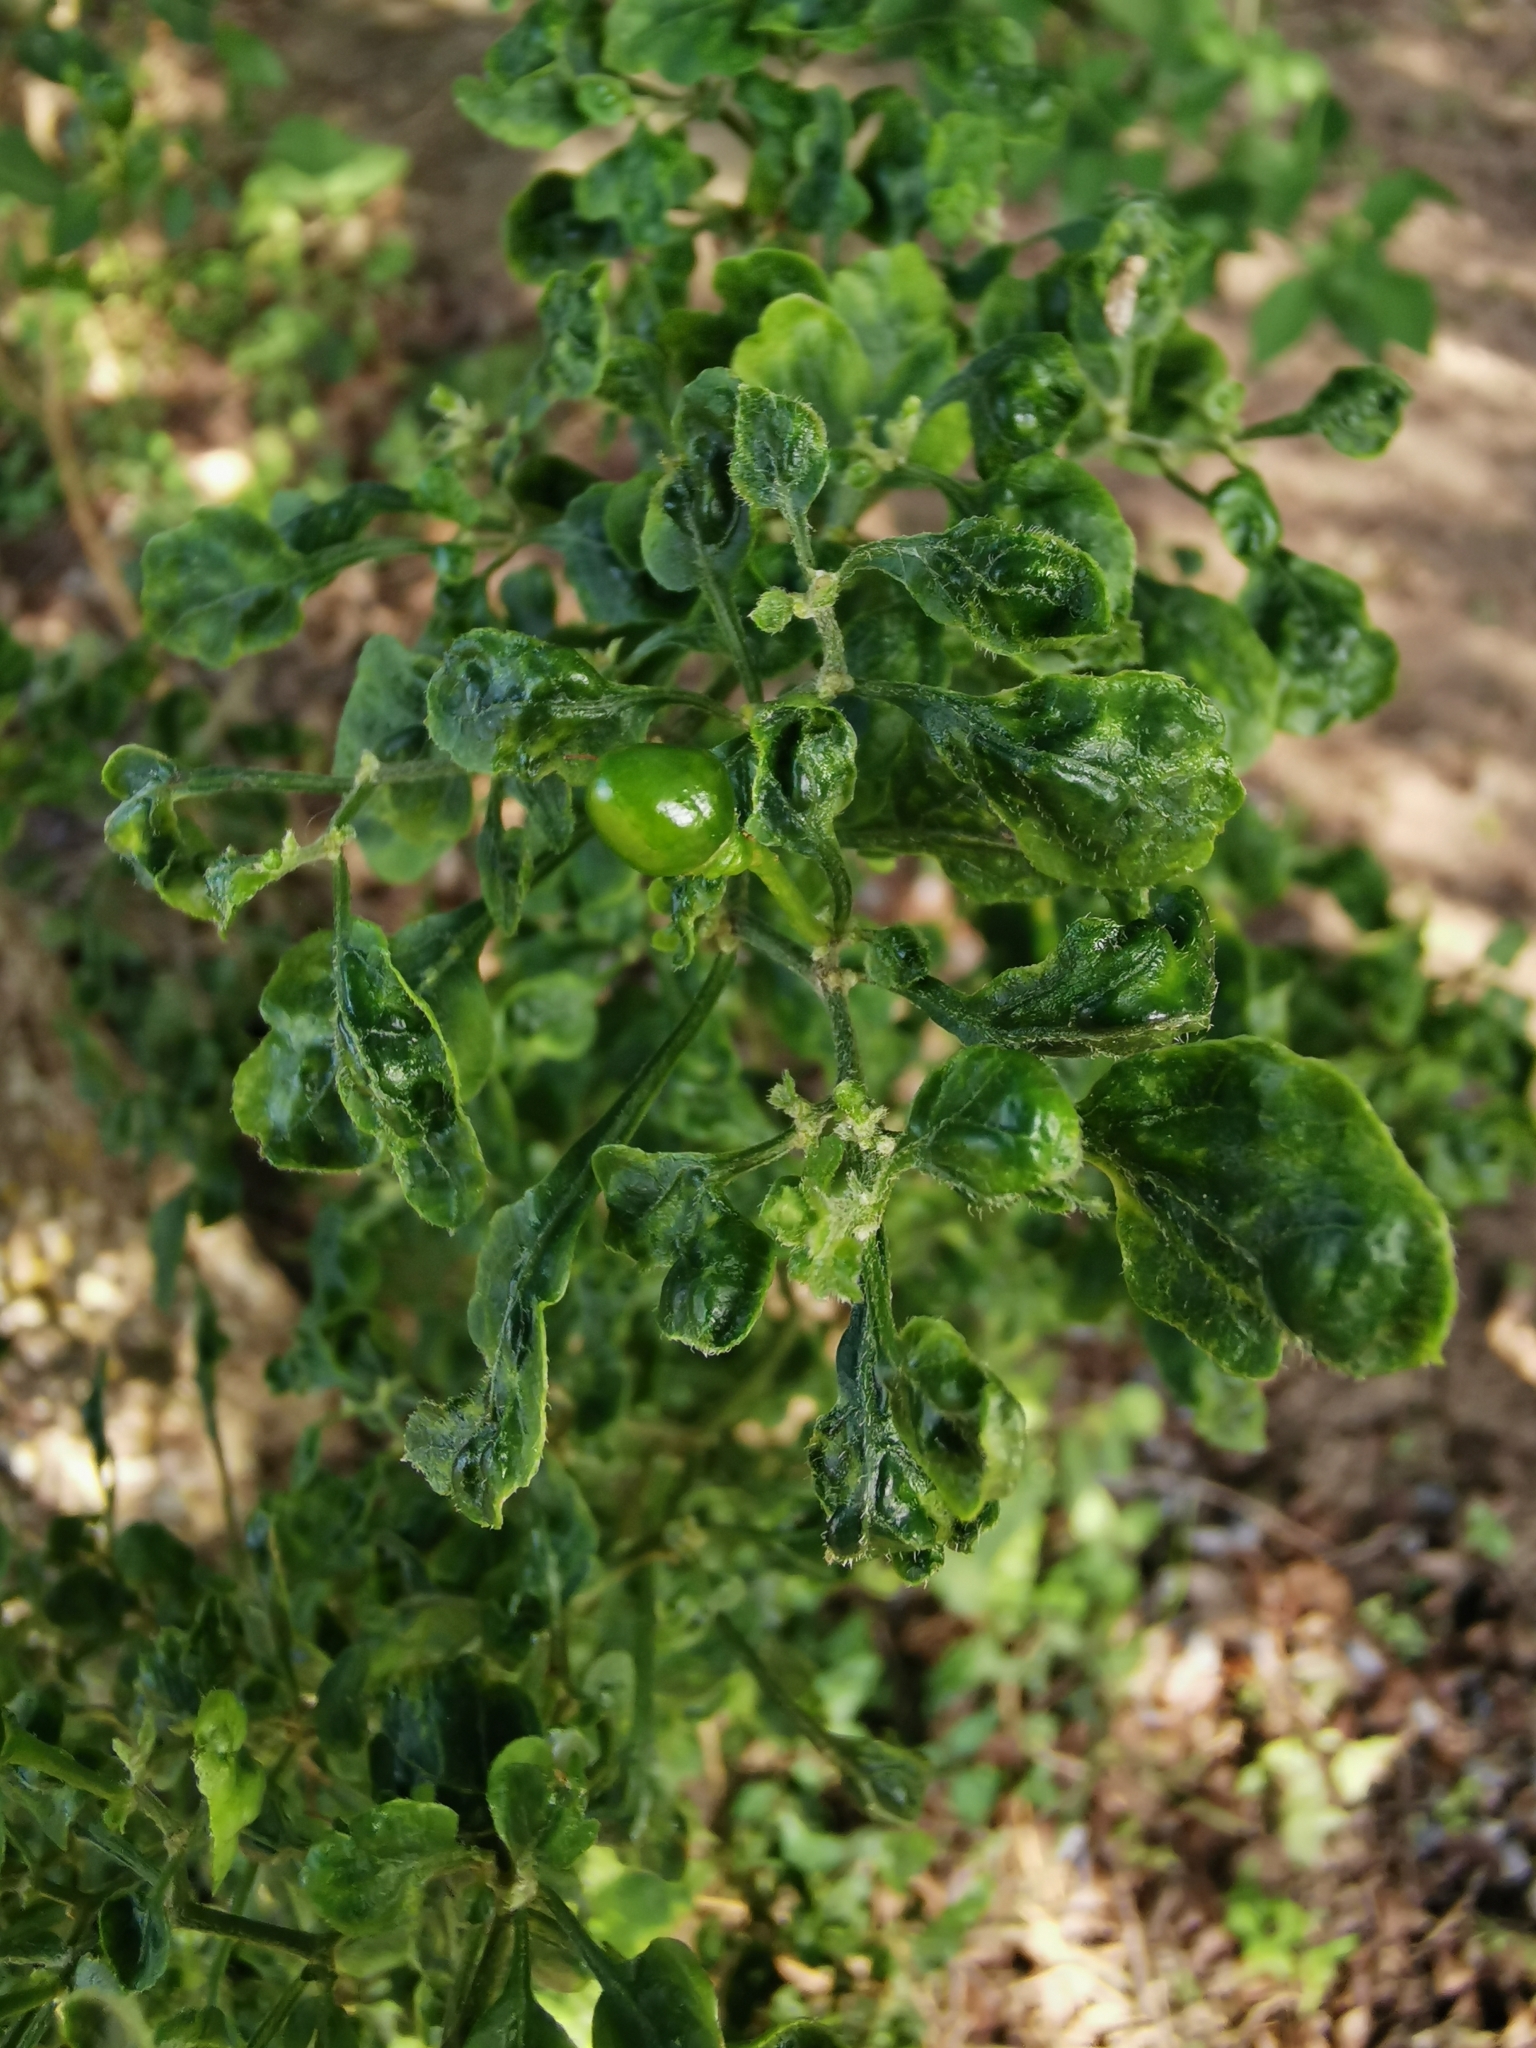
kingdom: Plantae
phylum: Tracheophyta
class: Magnoliopsida
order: Solanales
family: Solanaceae
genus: Capsicum
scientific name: Capsicum annuum
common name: Sweet pepper
